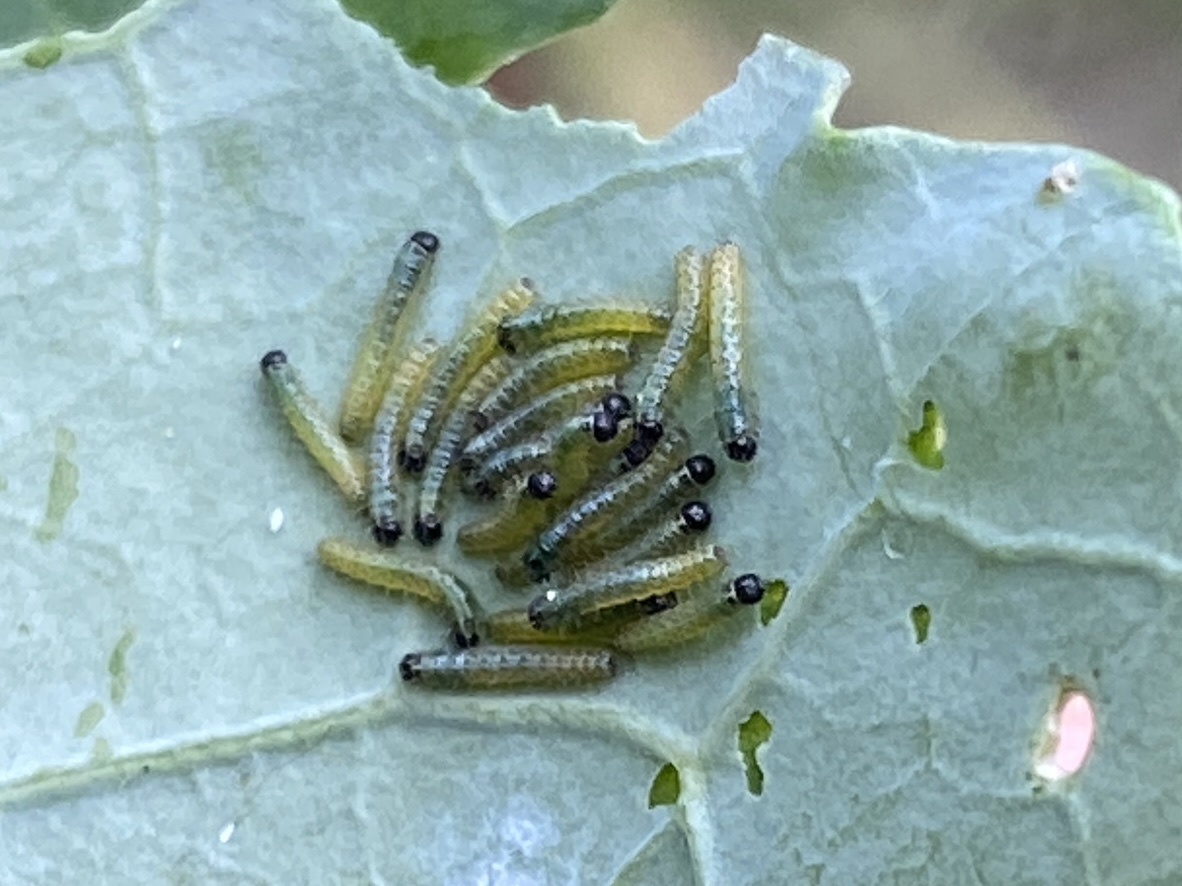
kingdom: Animalia
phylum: Arthropoda
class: Insecta
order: Lepidoptera
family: Pieridae
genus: Pieris
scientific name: Pieris brassicae
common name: Large white
